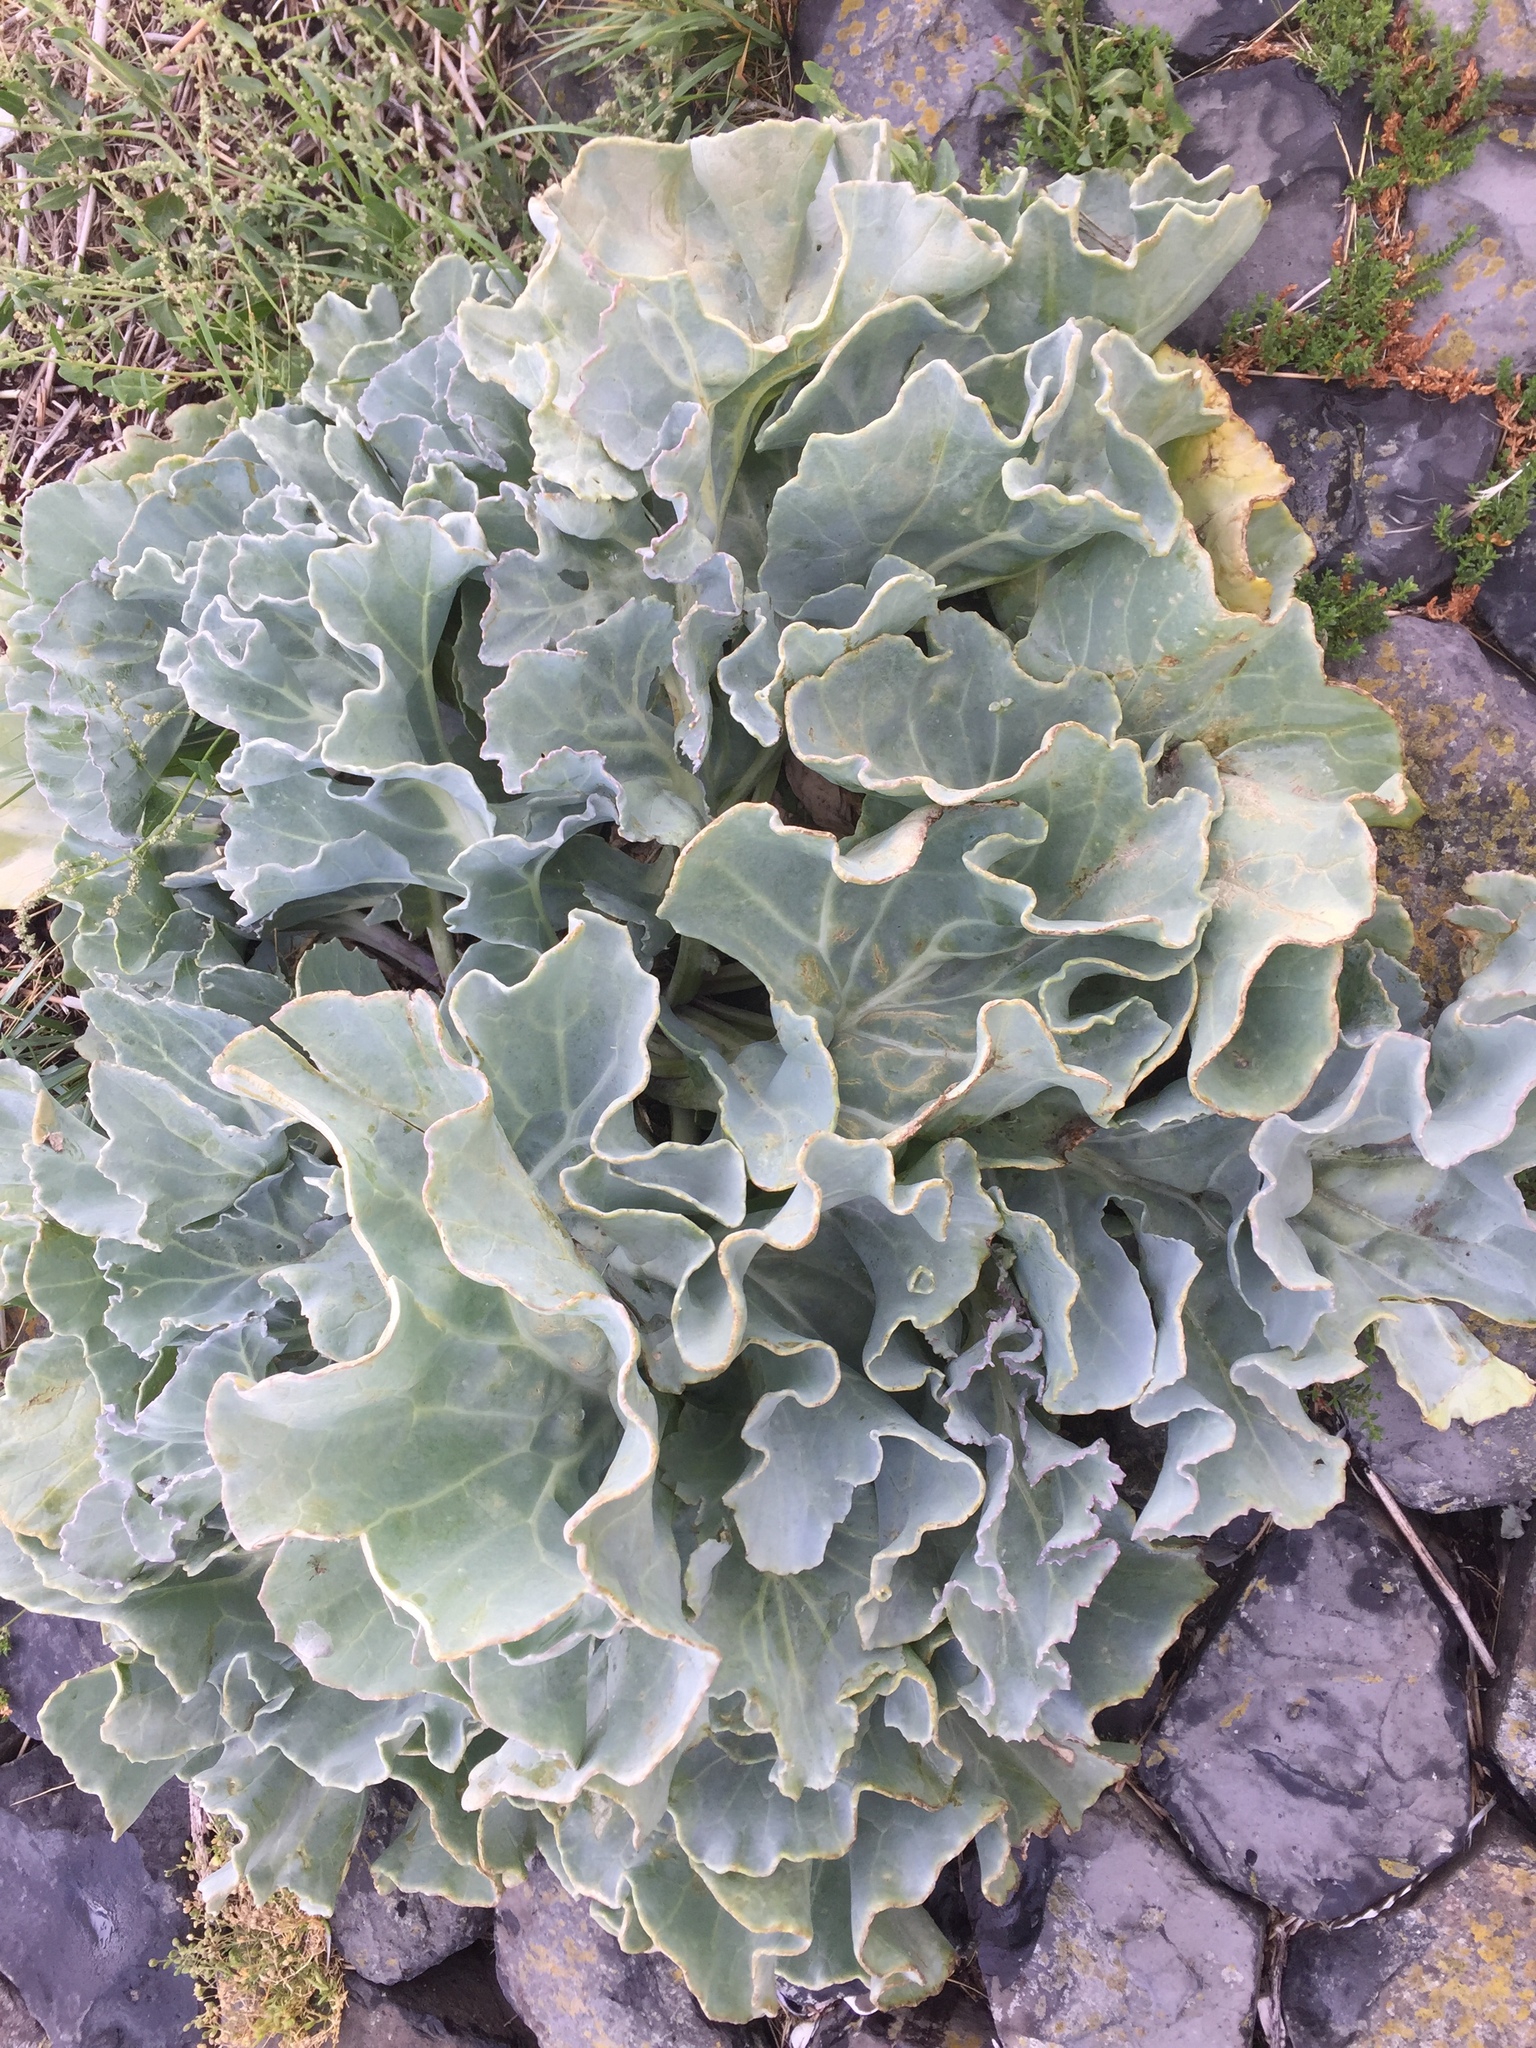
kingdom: Plantae
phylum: Tracheophyta
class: Magnoliopsida
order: Brassicales
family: Brassicaceae
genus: Crambe
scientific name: Crambe maritima
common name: Sea-kale
